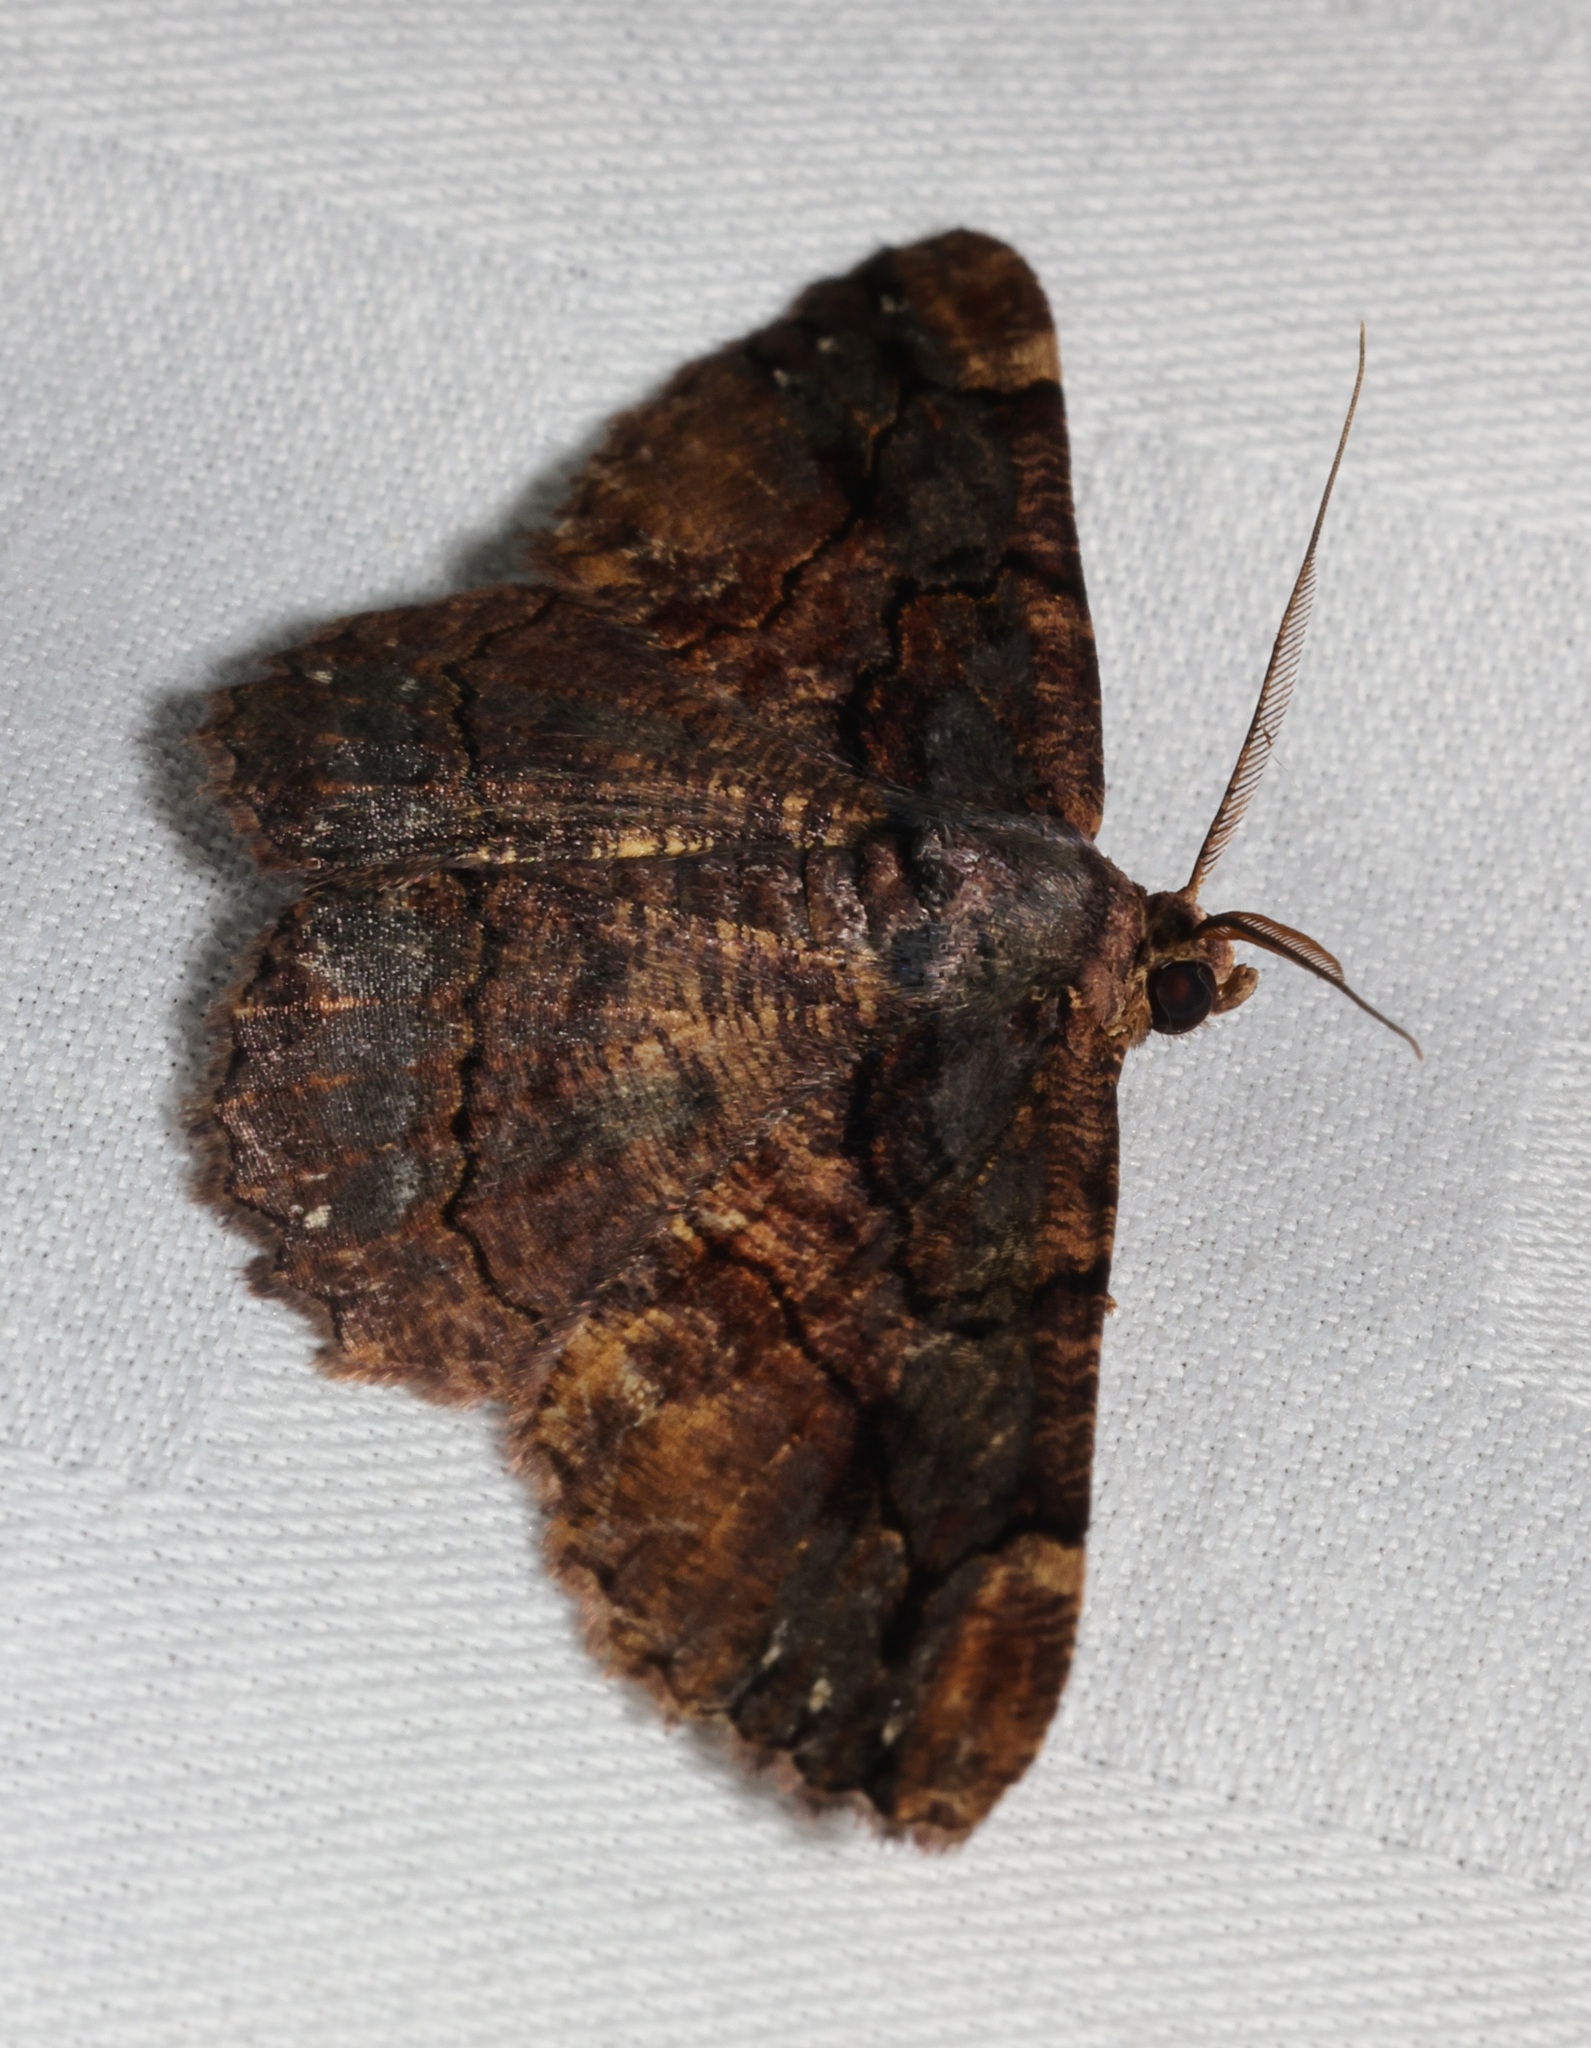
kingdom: Animalia
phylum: Arthropoda
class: Insecta
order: Lepidoptera
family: Geometridae
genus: Dasyboarmia
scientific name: Dasyboarmia subpilosa
